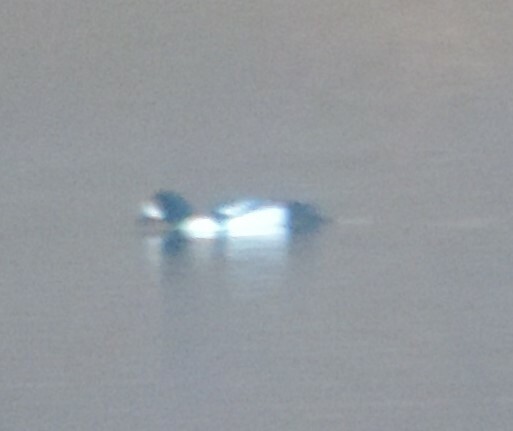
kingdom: Animalia
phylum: Chordata
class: Aves
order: Anseriformes
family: Anatidae
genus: Bucephala
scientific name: Bucephala islandica
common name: Barrow's goldeneye
